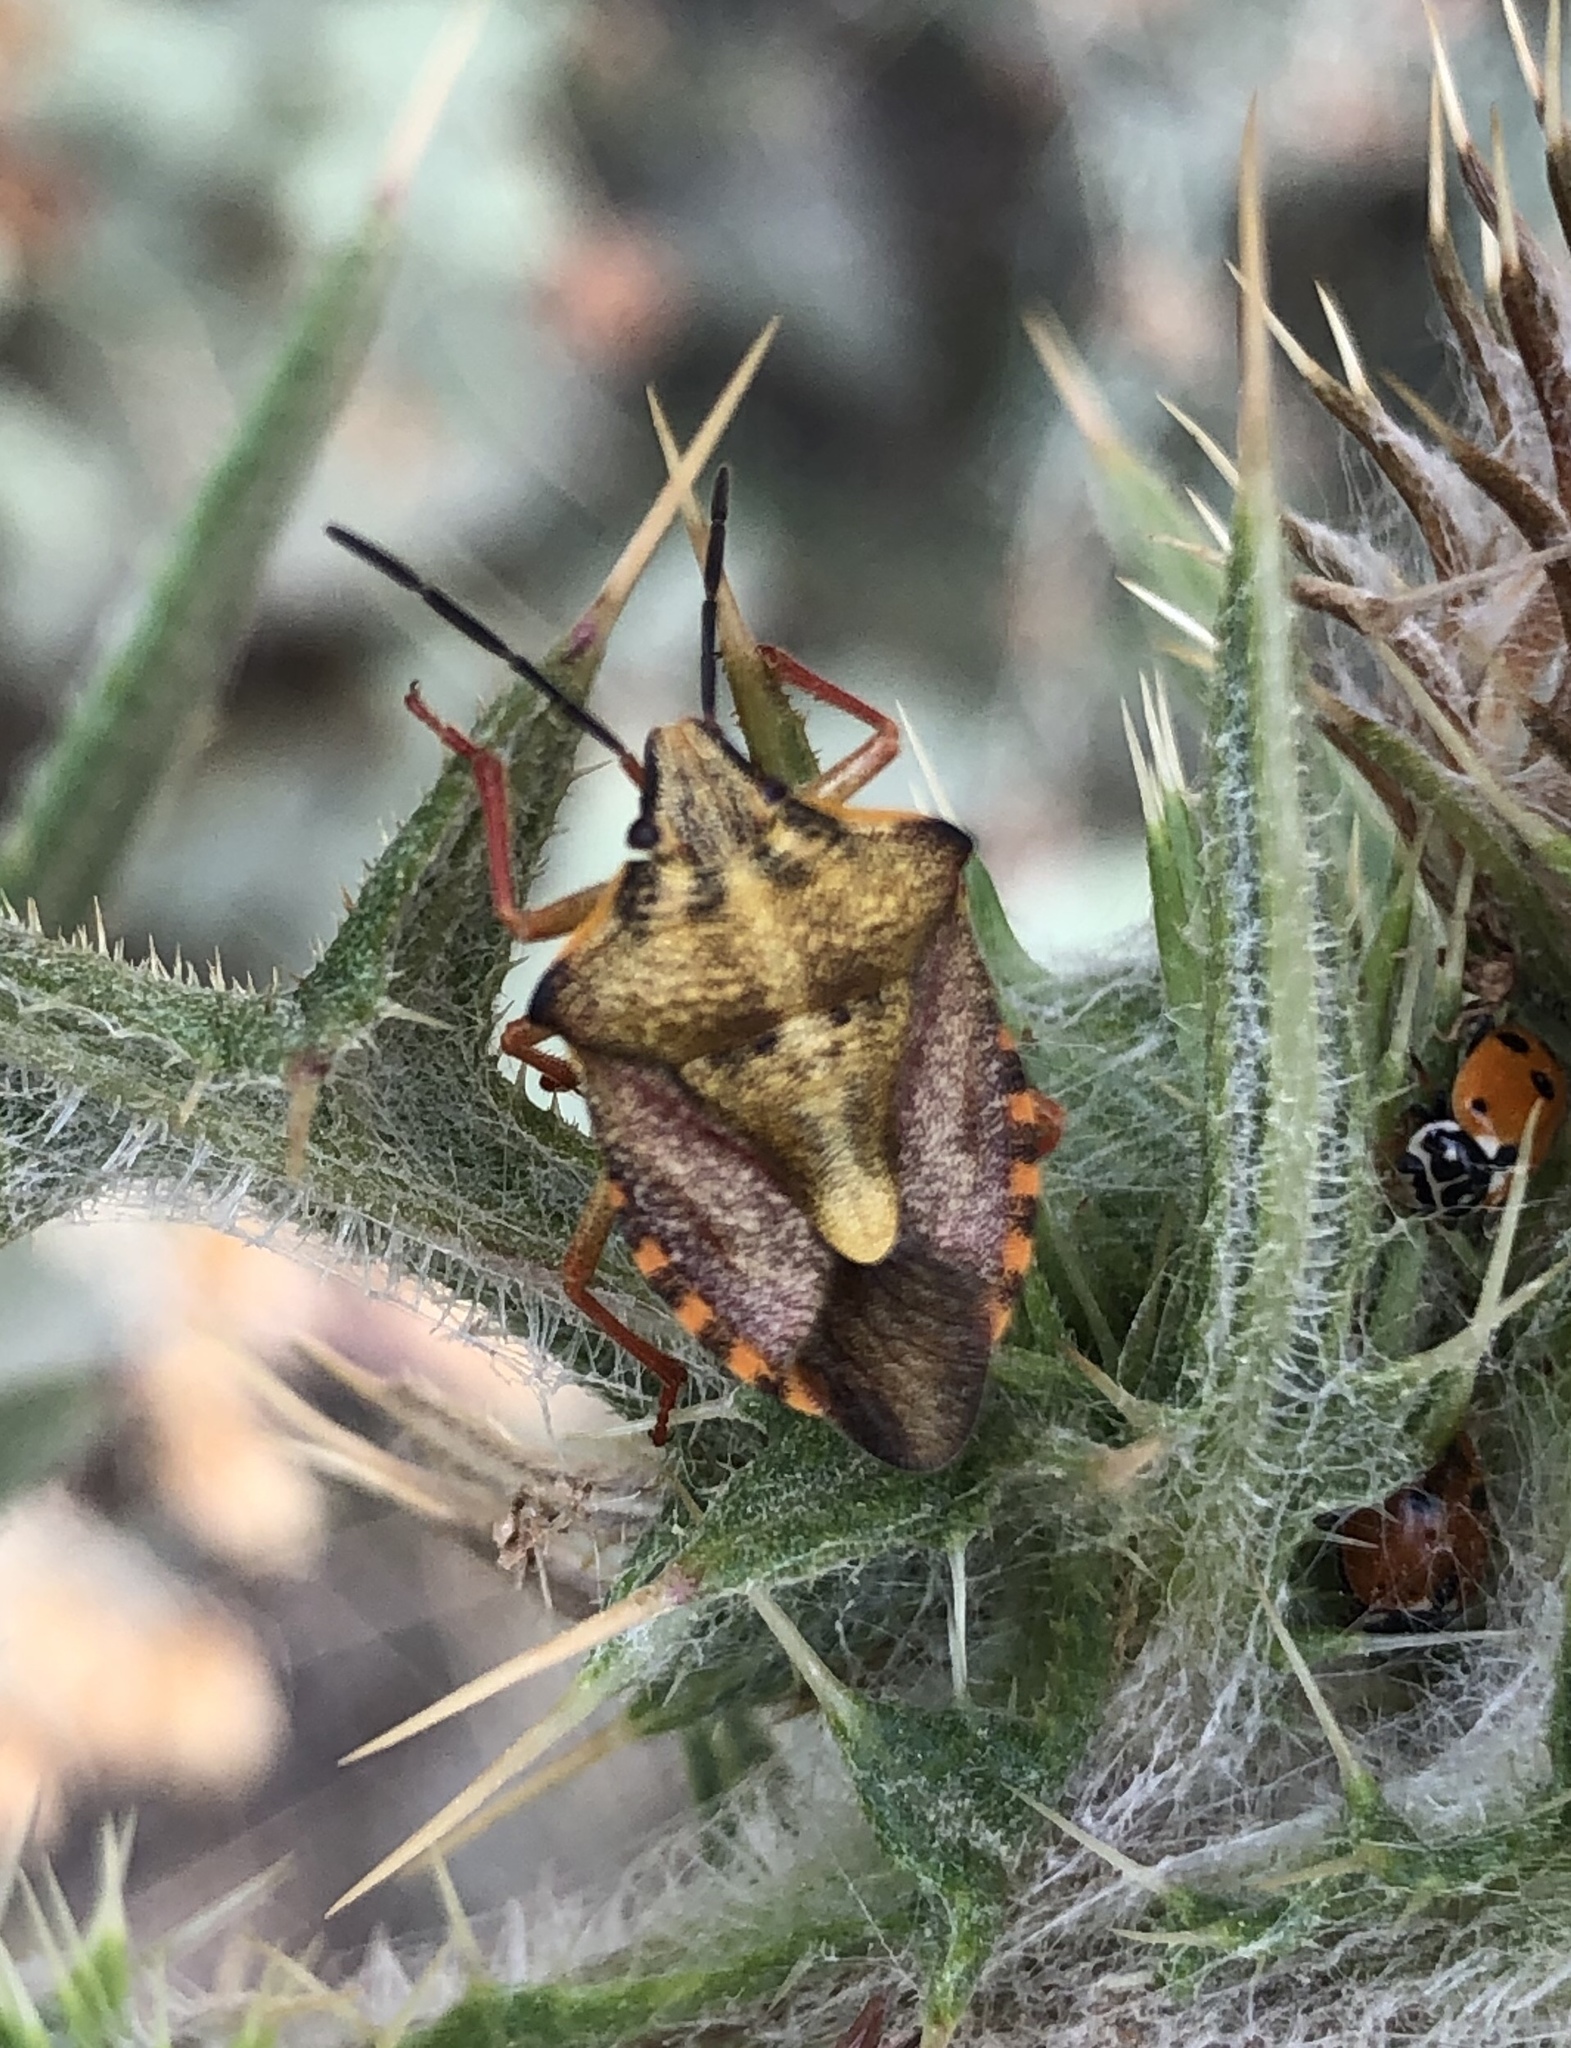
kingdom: Animalia
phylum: Arthropoda
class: Insecta
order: Hemiptera
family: Pentatomidae
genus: Carpocoris
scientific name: Carpocoris purpureipennis
